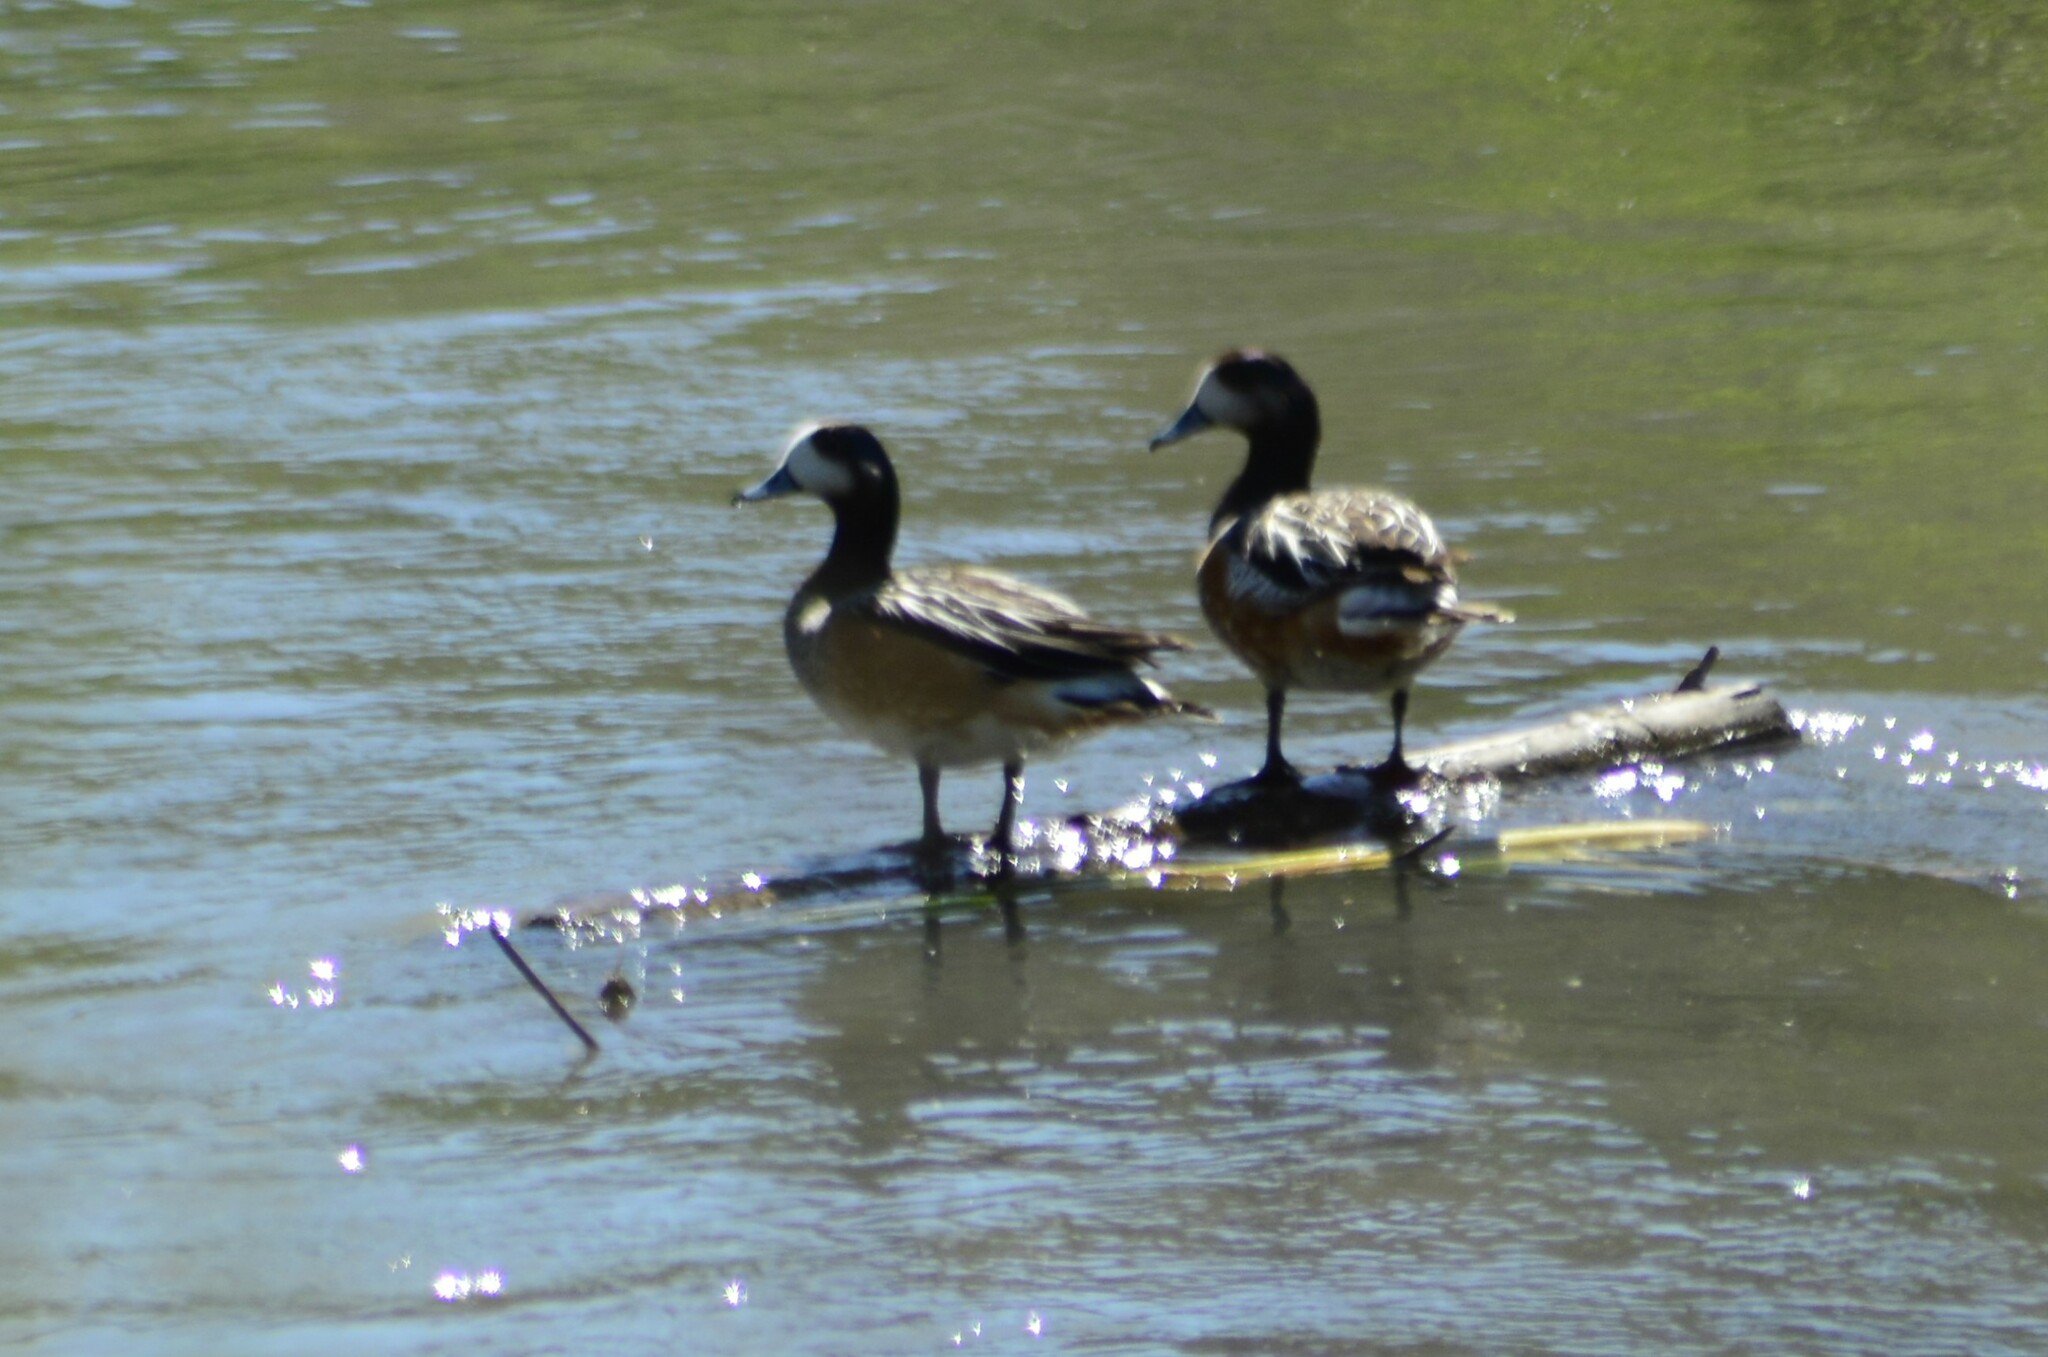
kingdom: Animalia
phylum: Chordata
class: Aves
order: Anseriformes
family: Anatidae
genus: Mareca
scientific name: Mareca sibilatrix
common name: Chiloe wigeon
